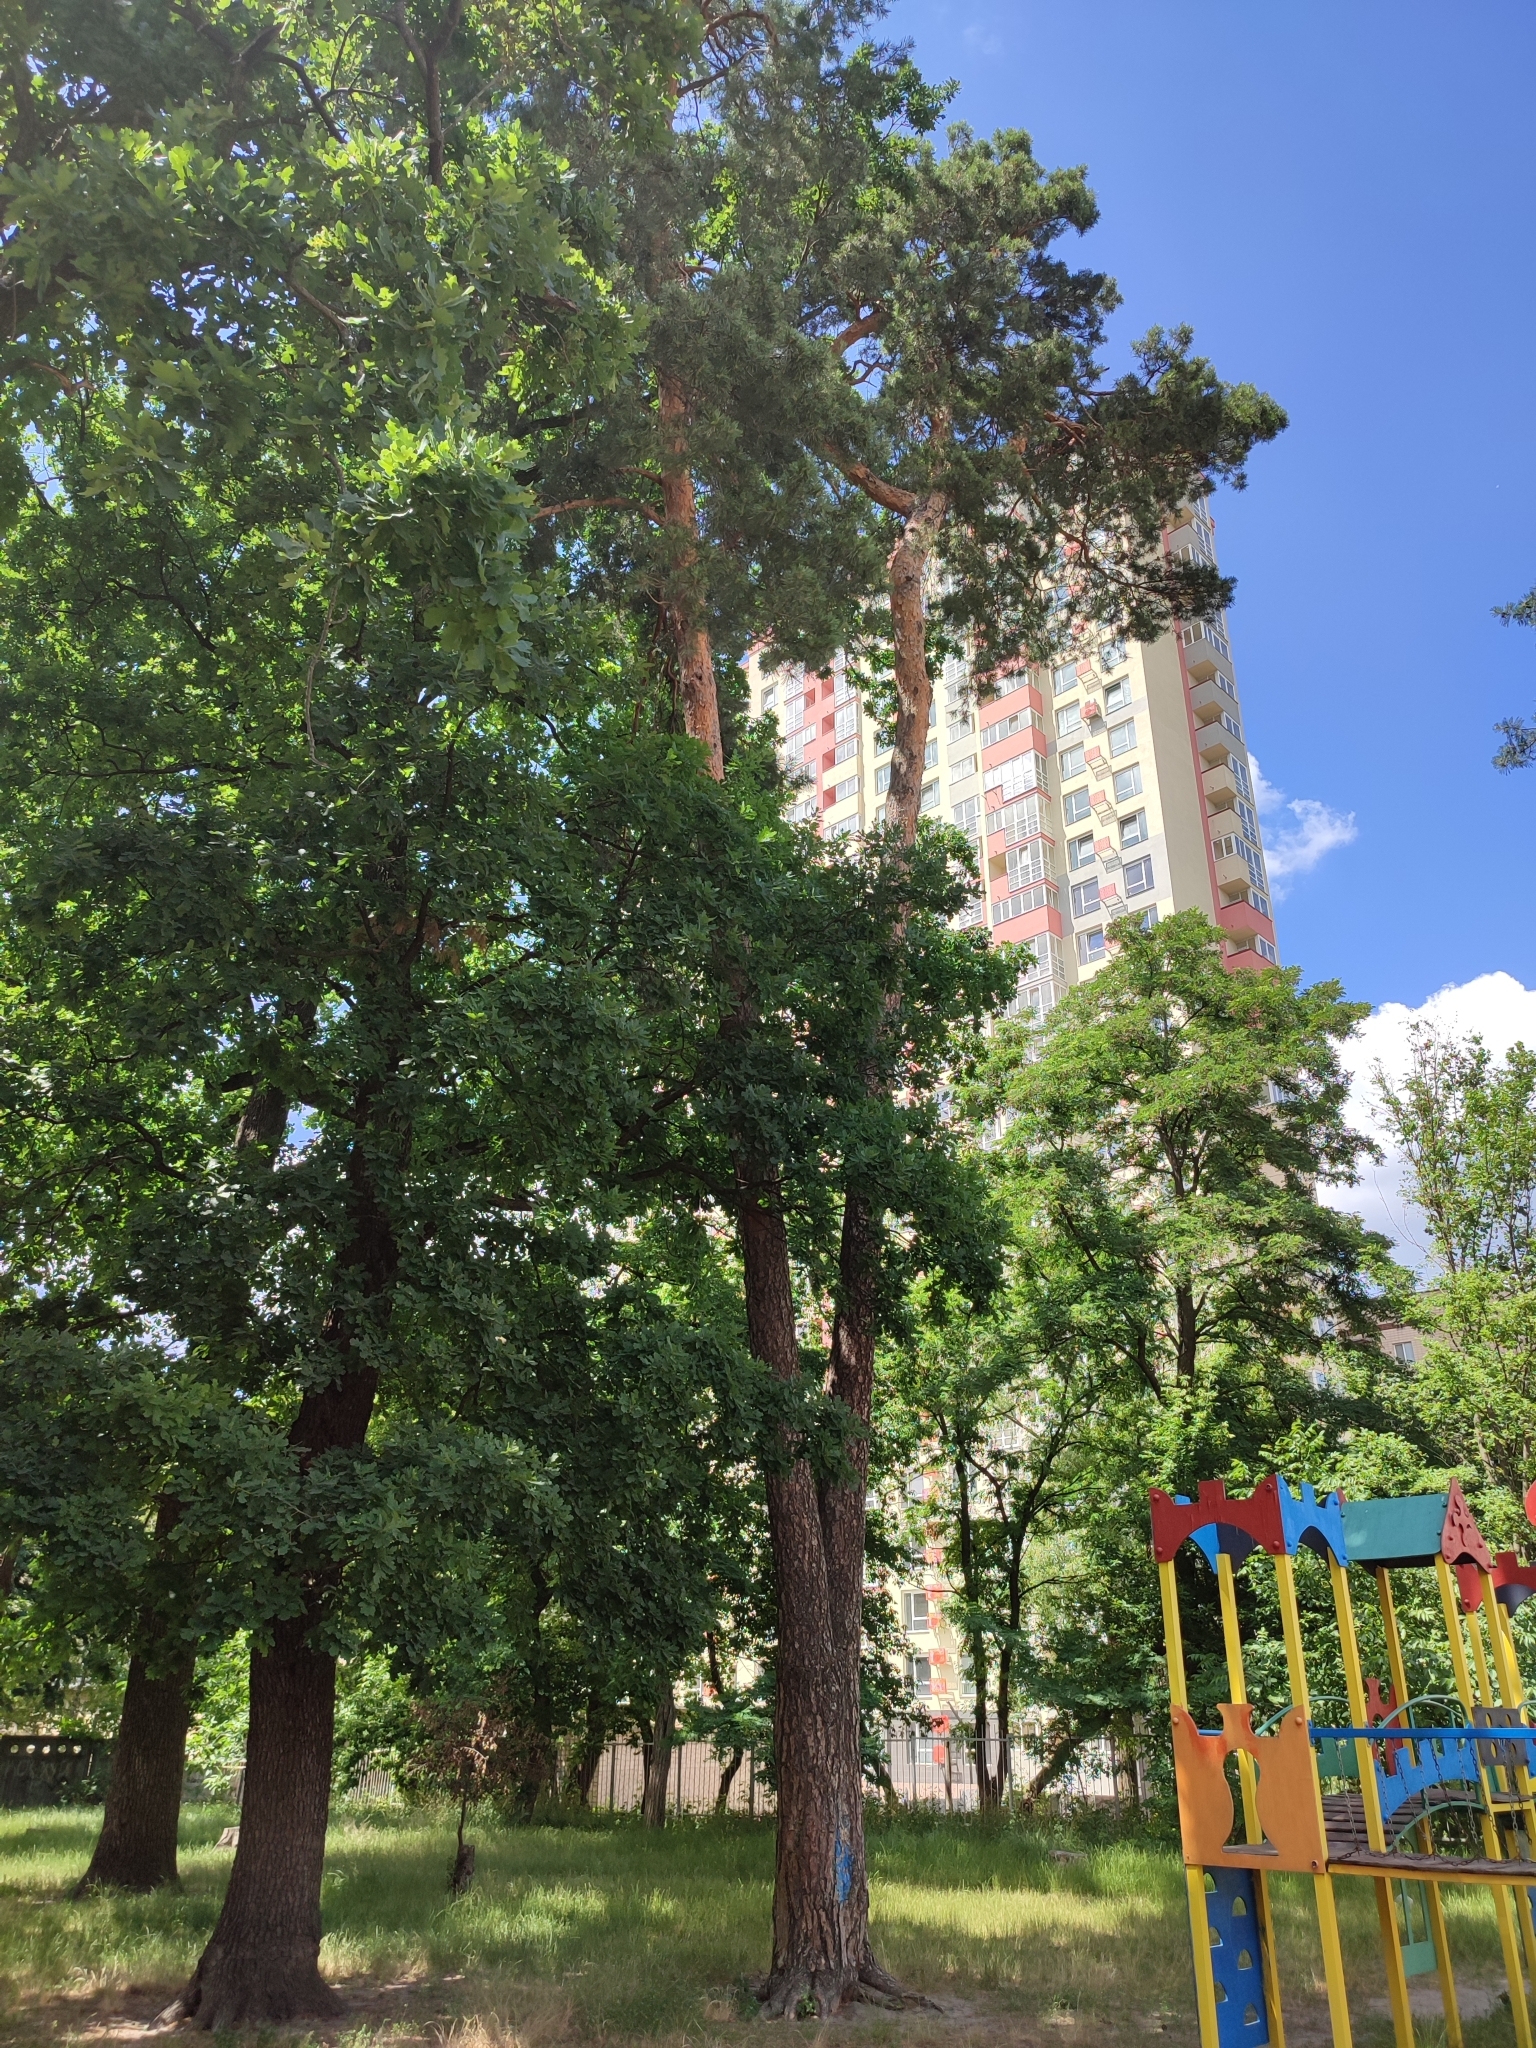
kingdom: Plantae
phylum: Tracheophyta
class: Pinopsida
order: Pinales
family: Pinaceae
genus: Pinus
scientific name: Pinus sylvestris
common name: Scots pine
